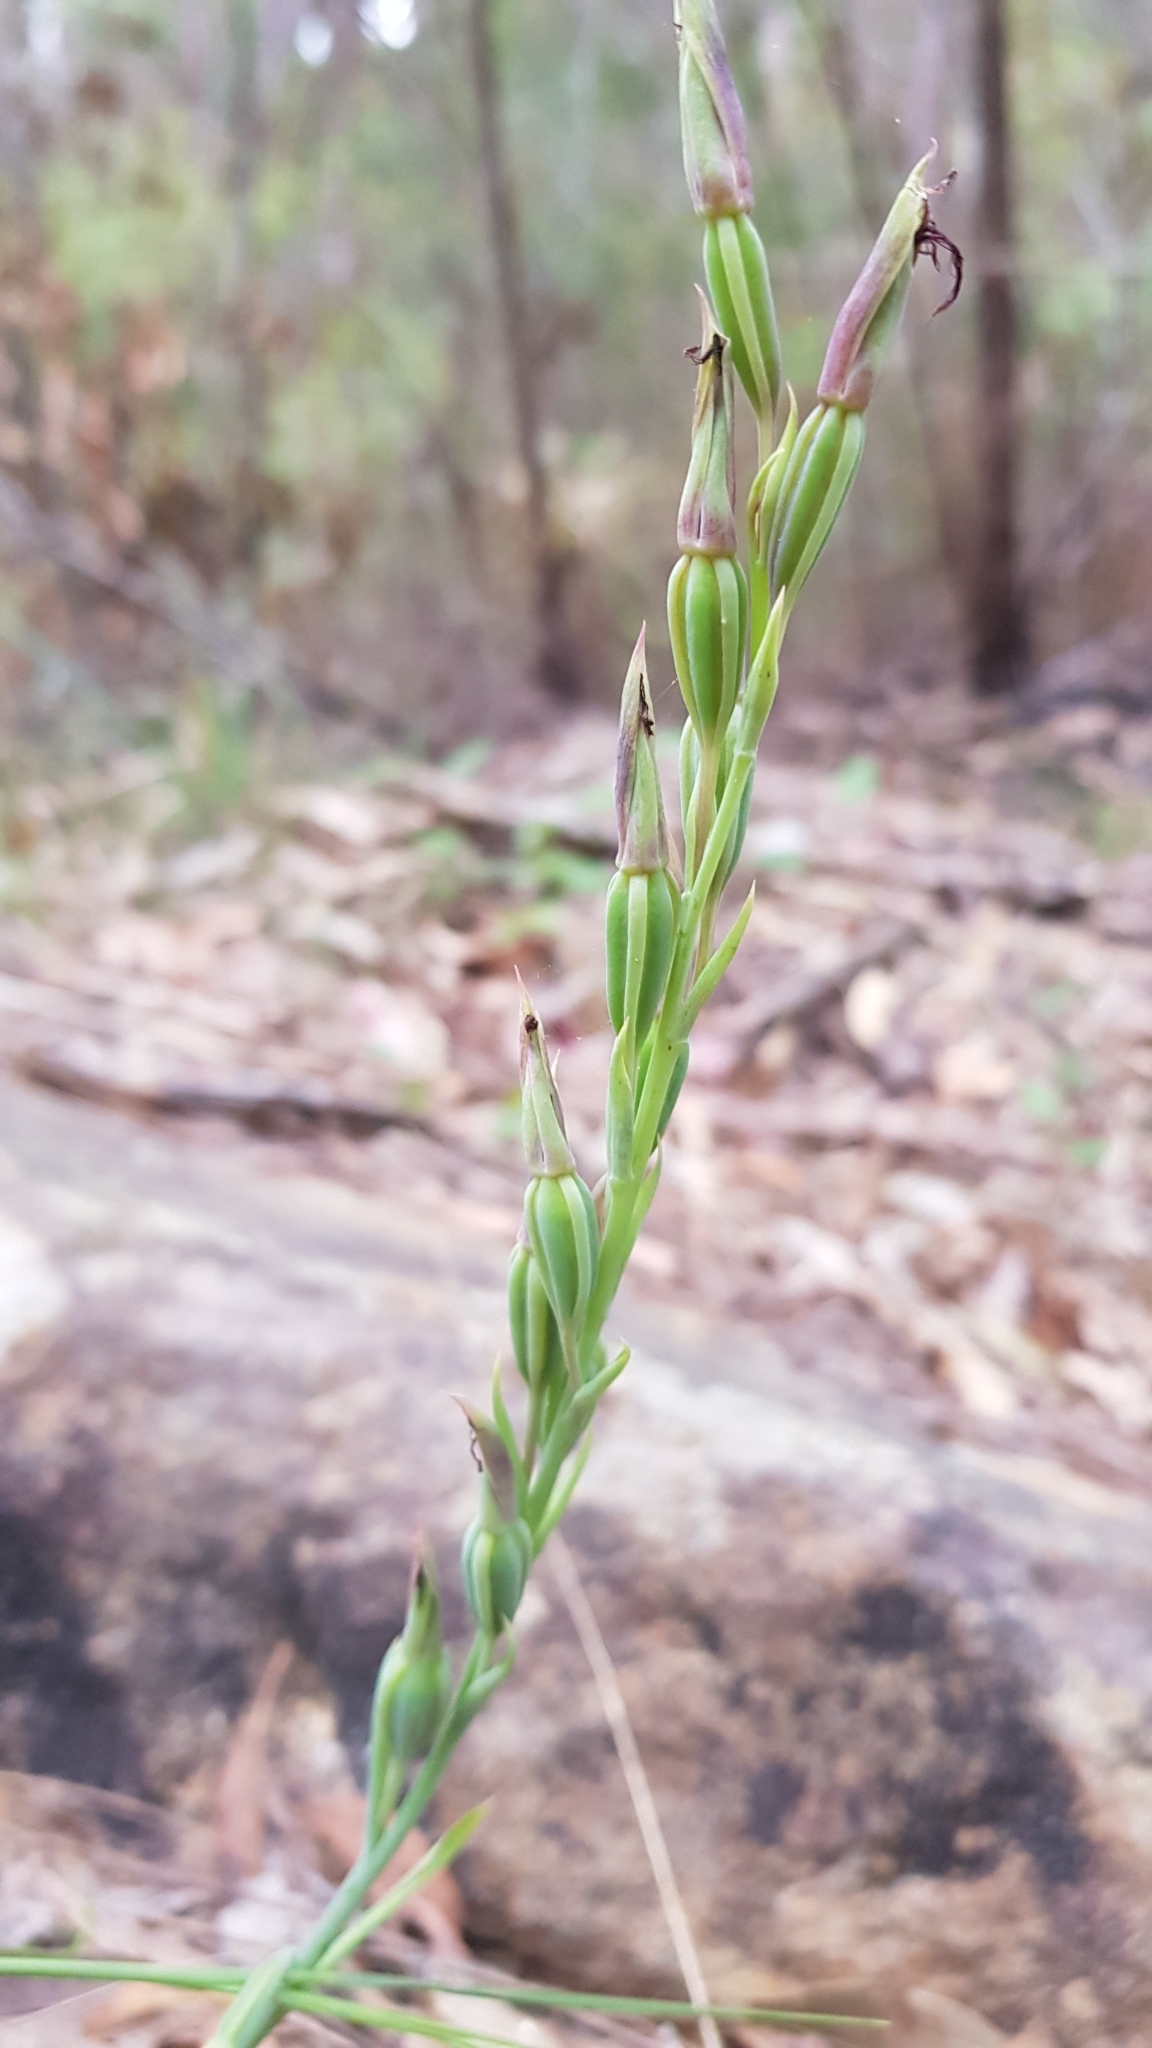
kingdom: Plantae
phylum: Tracheophyta
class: Liliopsida
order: Asparagales
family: Orchidaceae
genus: Calochilus
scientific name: Calochilus paludosus
